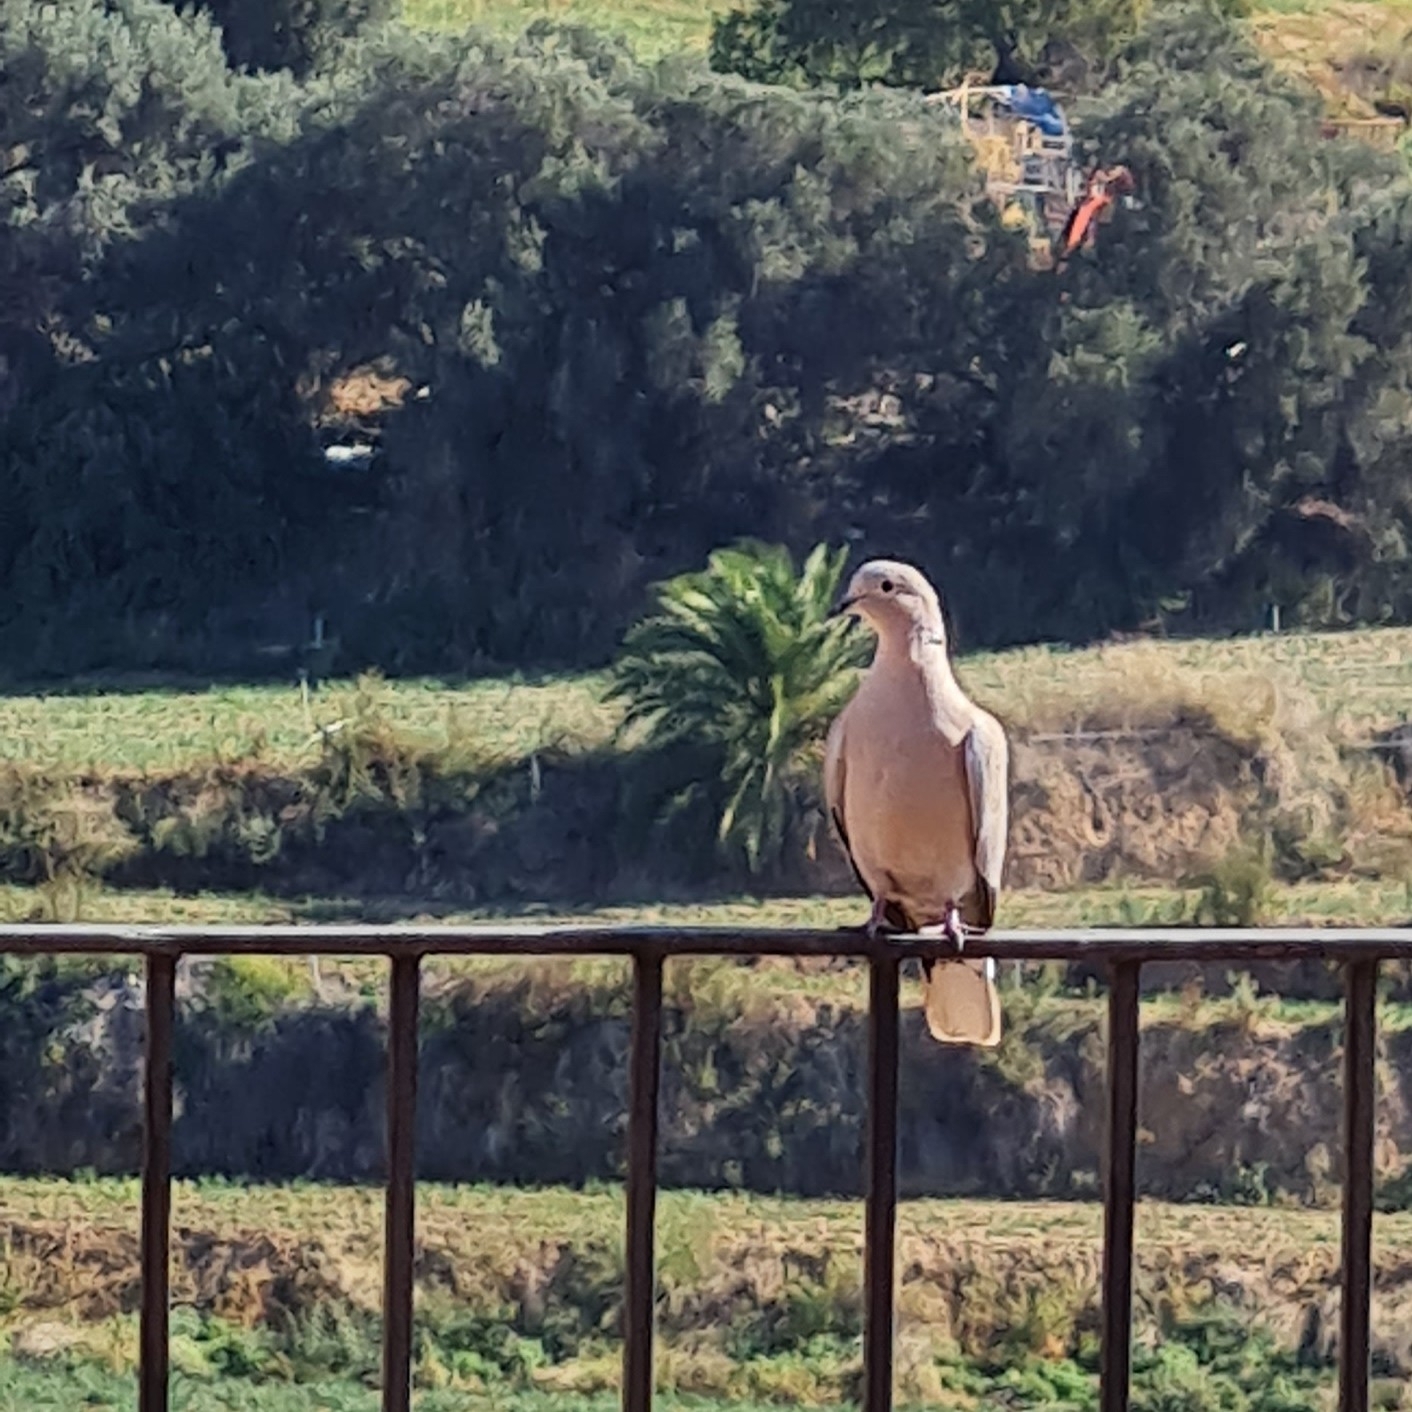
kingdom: Animalia
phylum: Chordata
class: Aves
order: Columbiformes
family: Columbidae
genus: Streptopelia
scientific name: Streptopelia decaocto
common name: Eurasian collared dove
